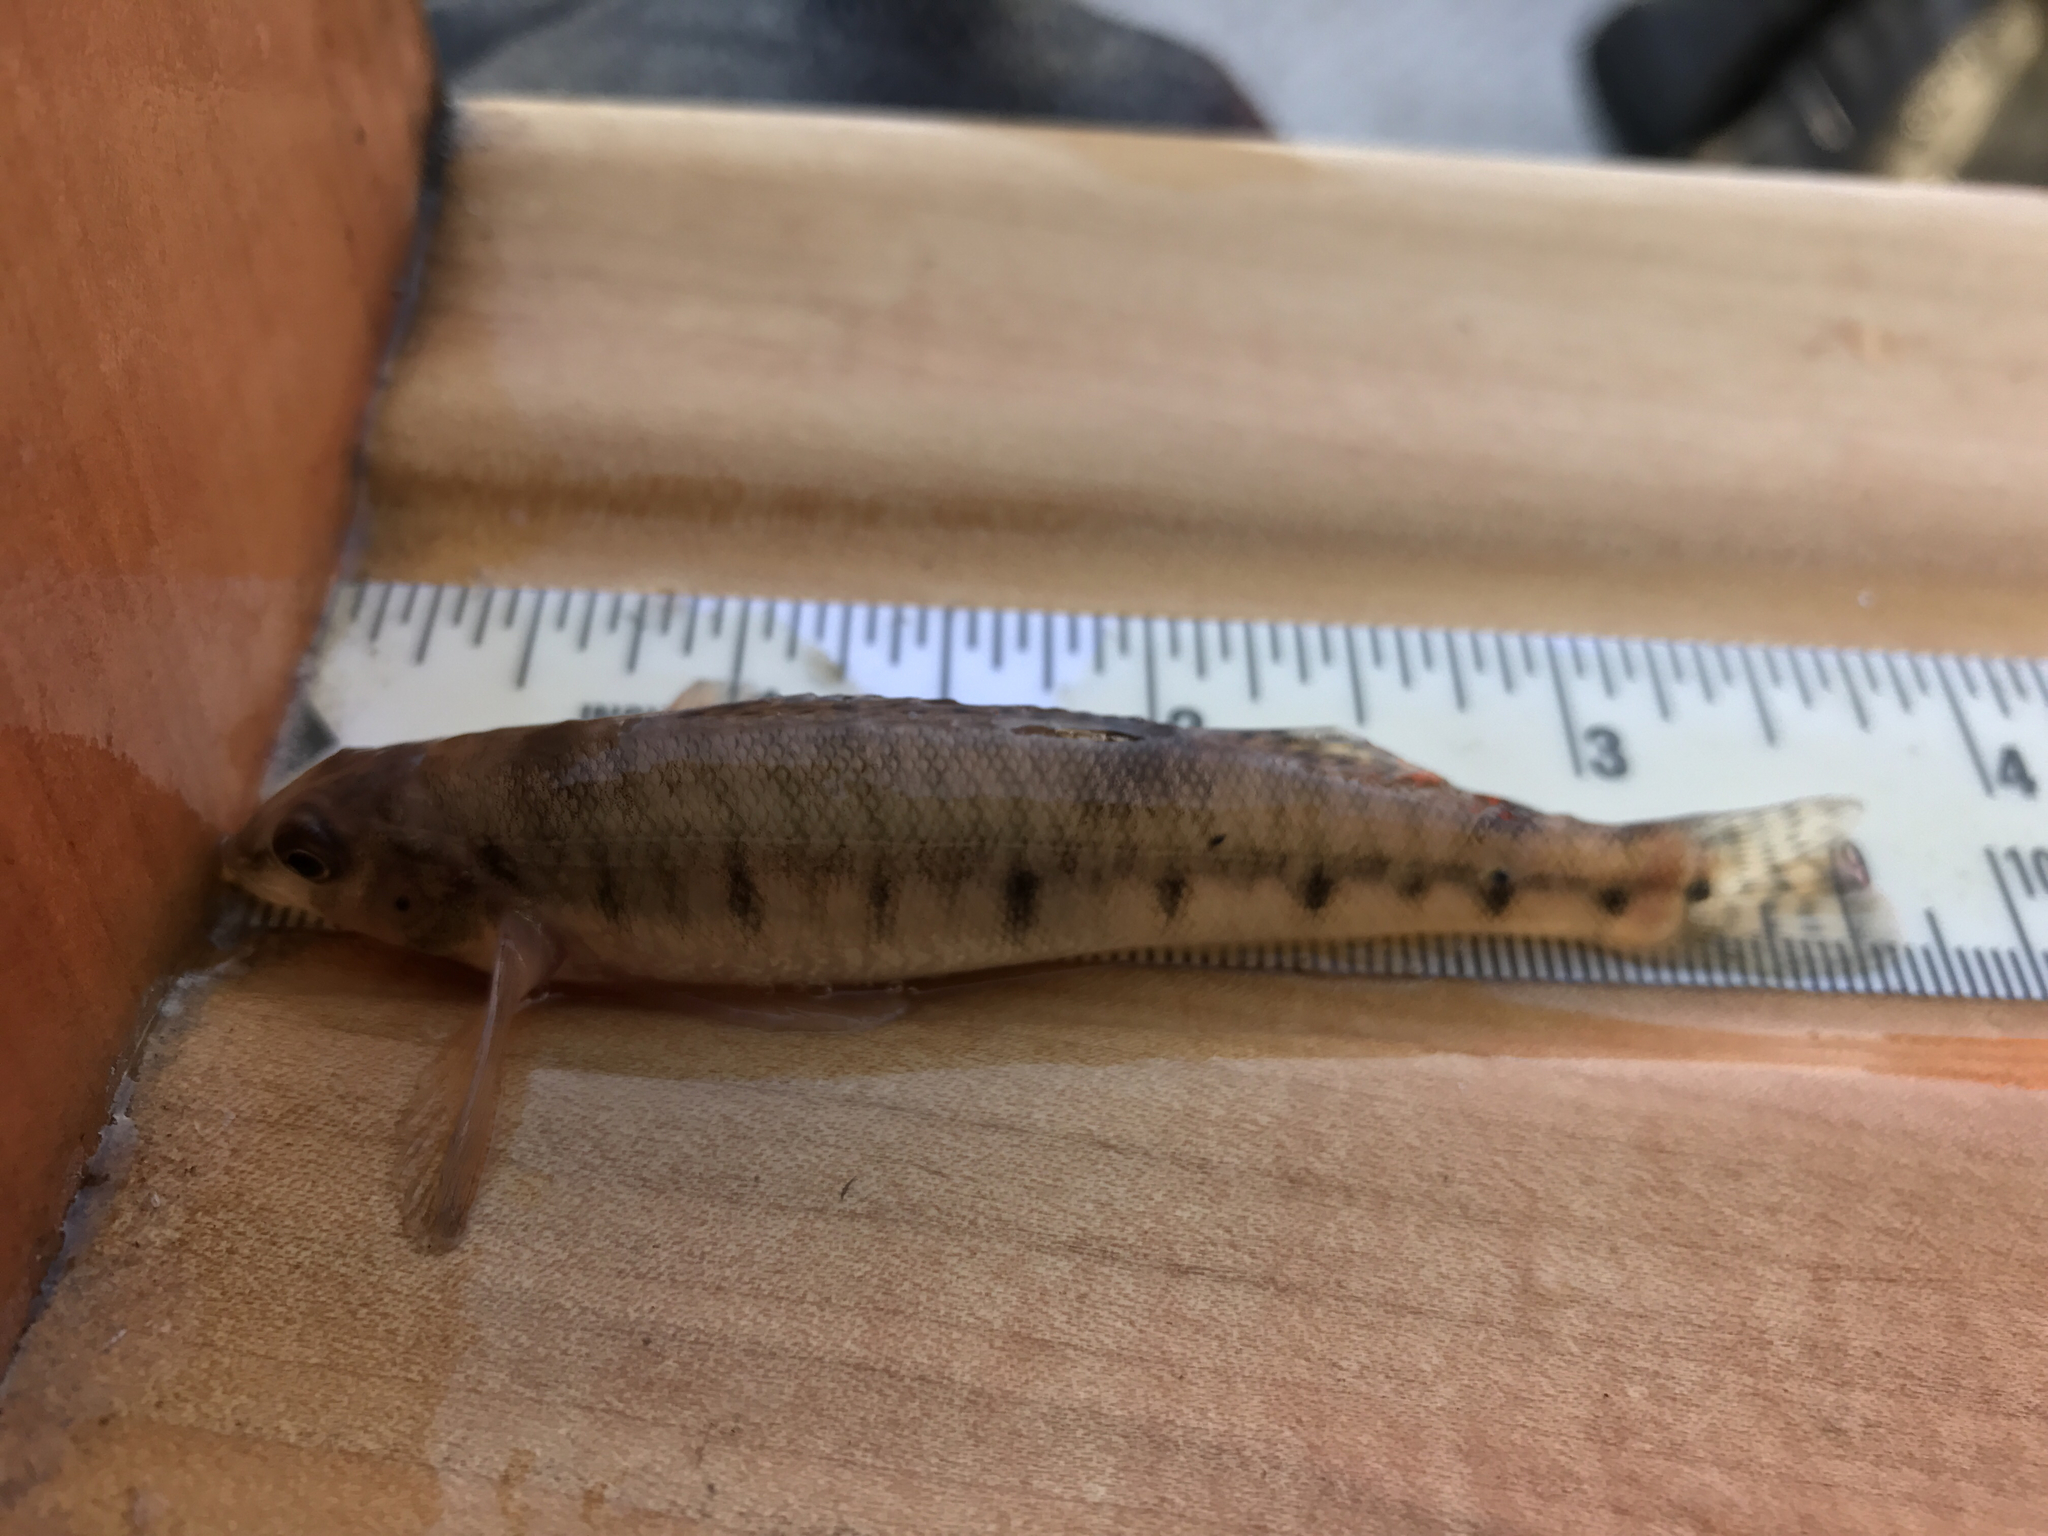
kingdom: Animalia
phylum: Chordata
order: Perciformes
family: Percidae
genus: Percina
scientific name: Percina caprodes
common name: Logperch
